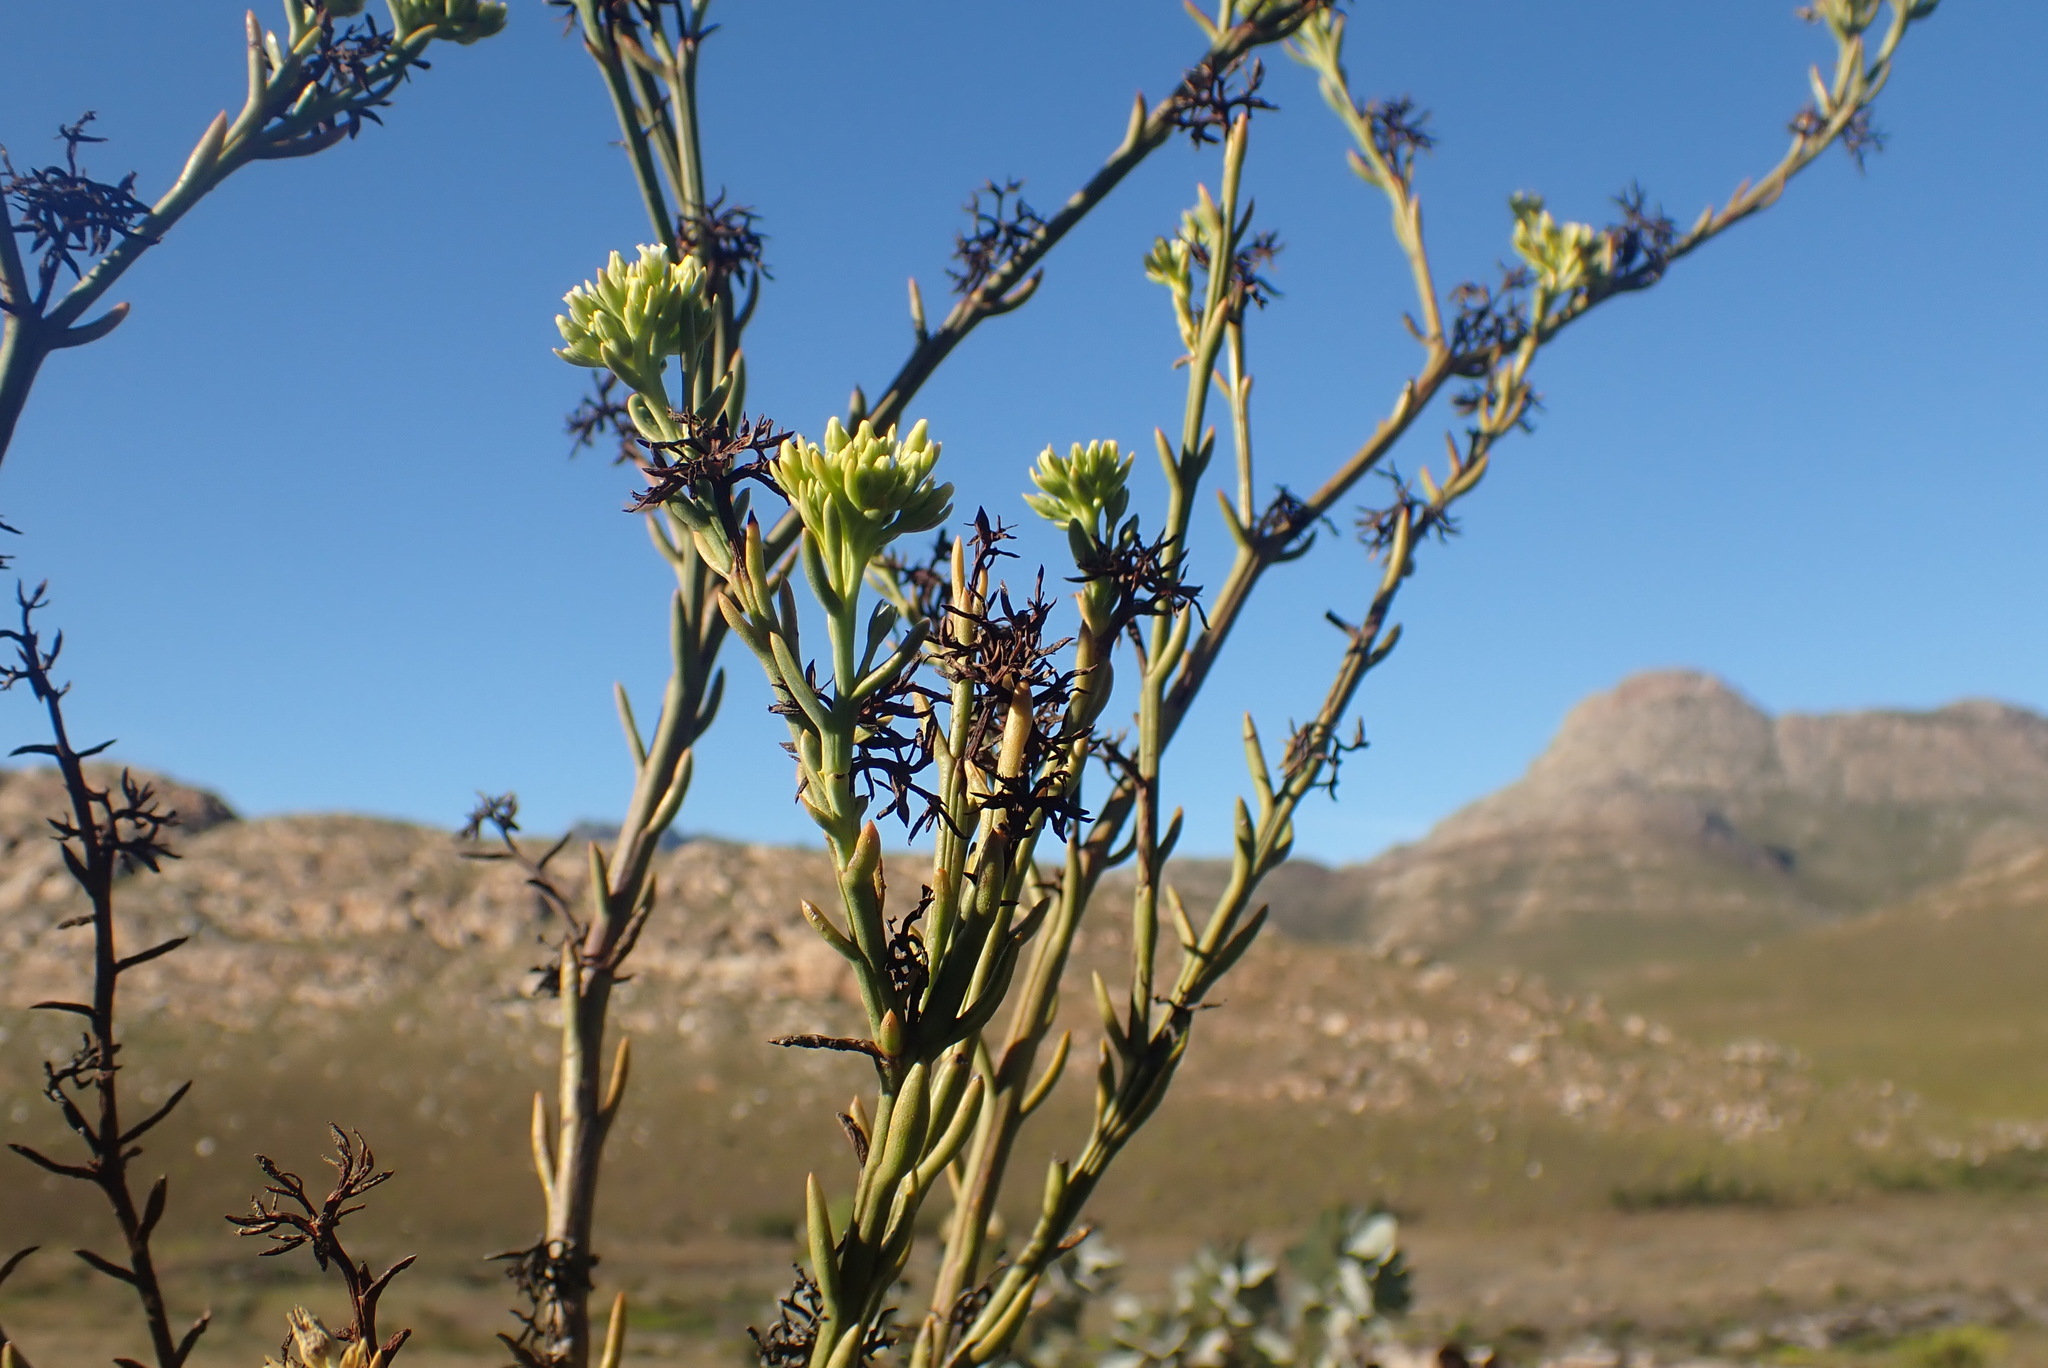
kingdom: Plantae
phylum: Tracheophyta
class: Magnoliopsida
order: Santalales
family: Thesiaceae
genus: Thesium
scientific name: Thesium strictum
